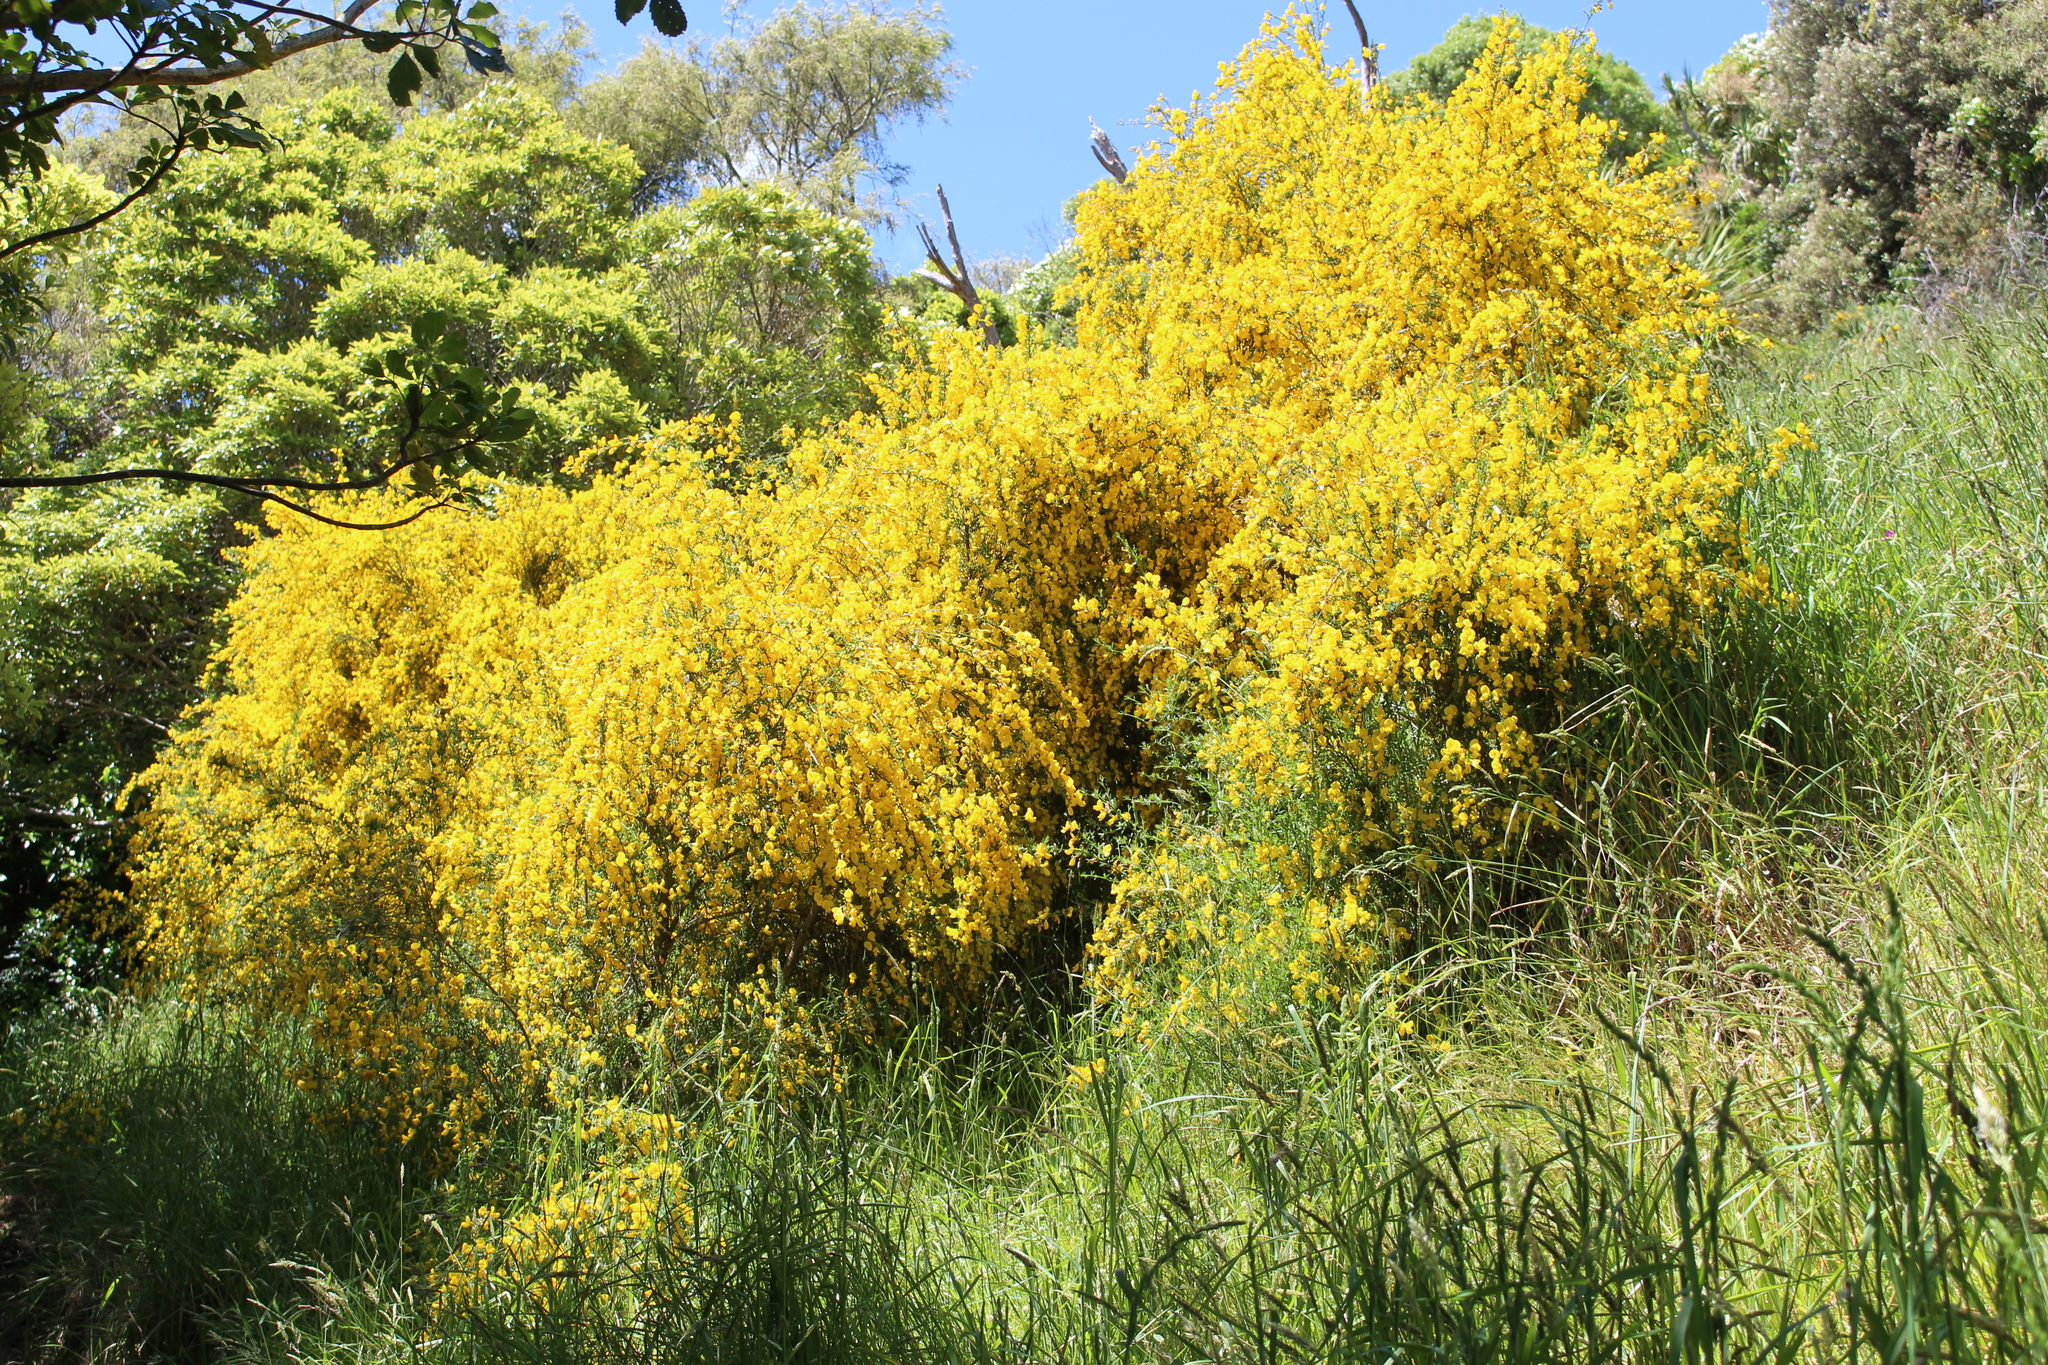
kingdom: Plantae
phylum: Tracheophyta
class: Magnoliopsida
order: Fabales
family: Fabaceae
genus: Genista
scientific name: Genista monspessulana
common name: Montpellier broom
